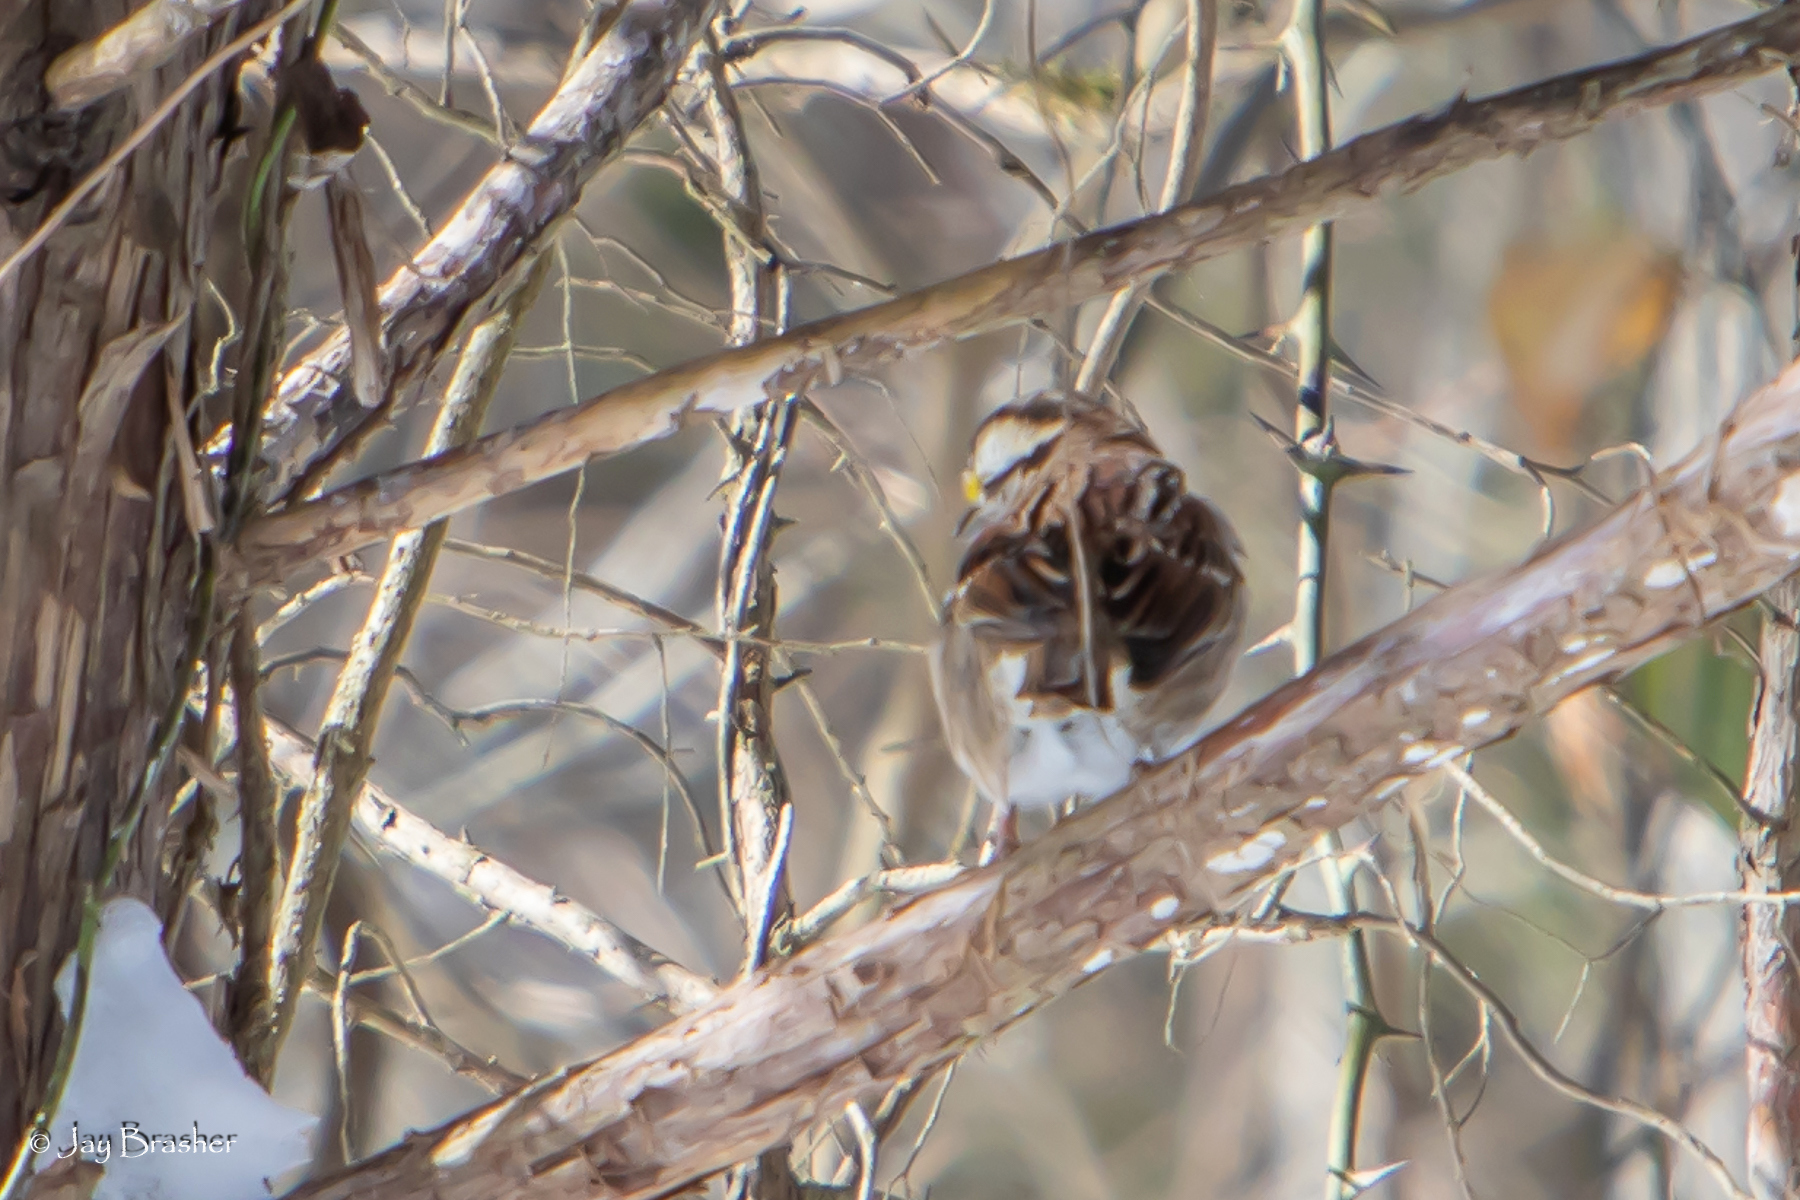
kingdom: Animalia
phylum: Chordata
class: Aves
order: Passeriformes
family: Passerellidae
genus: Zonotrichia
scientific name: Zonotrichia albicollis
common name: White-throated sparrow
